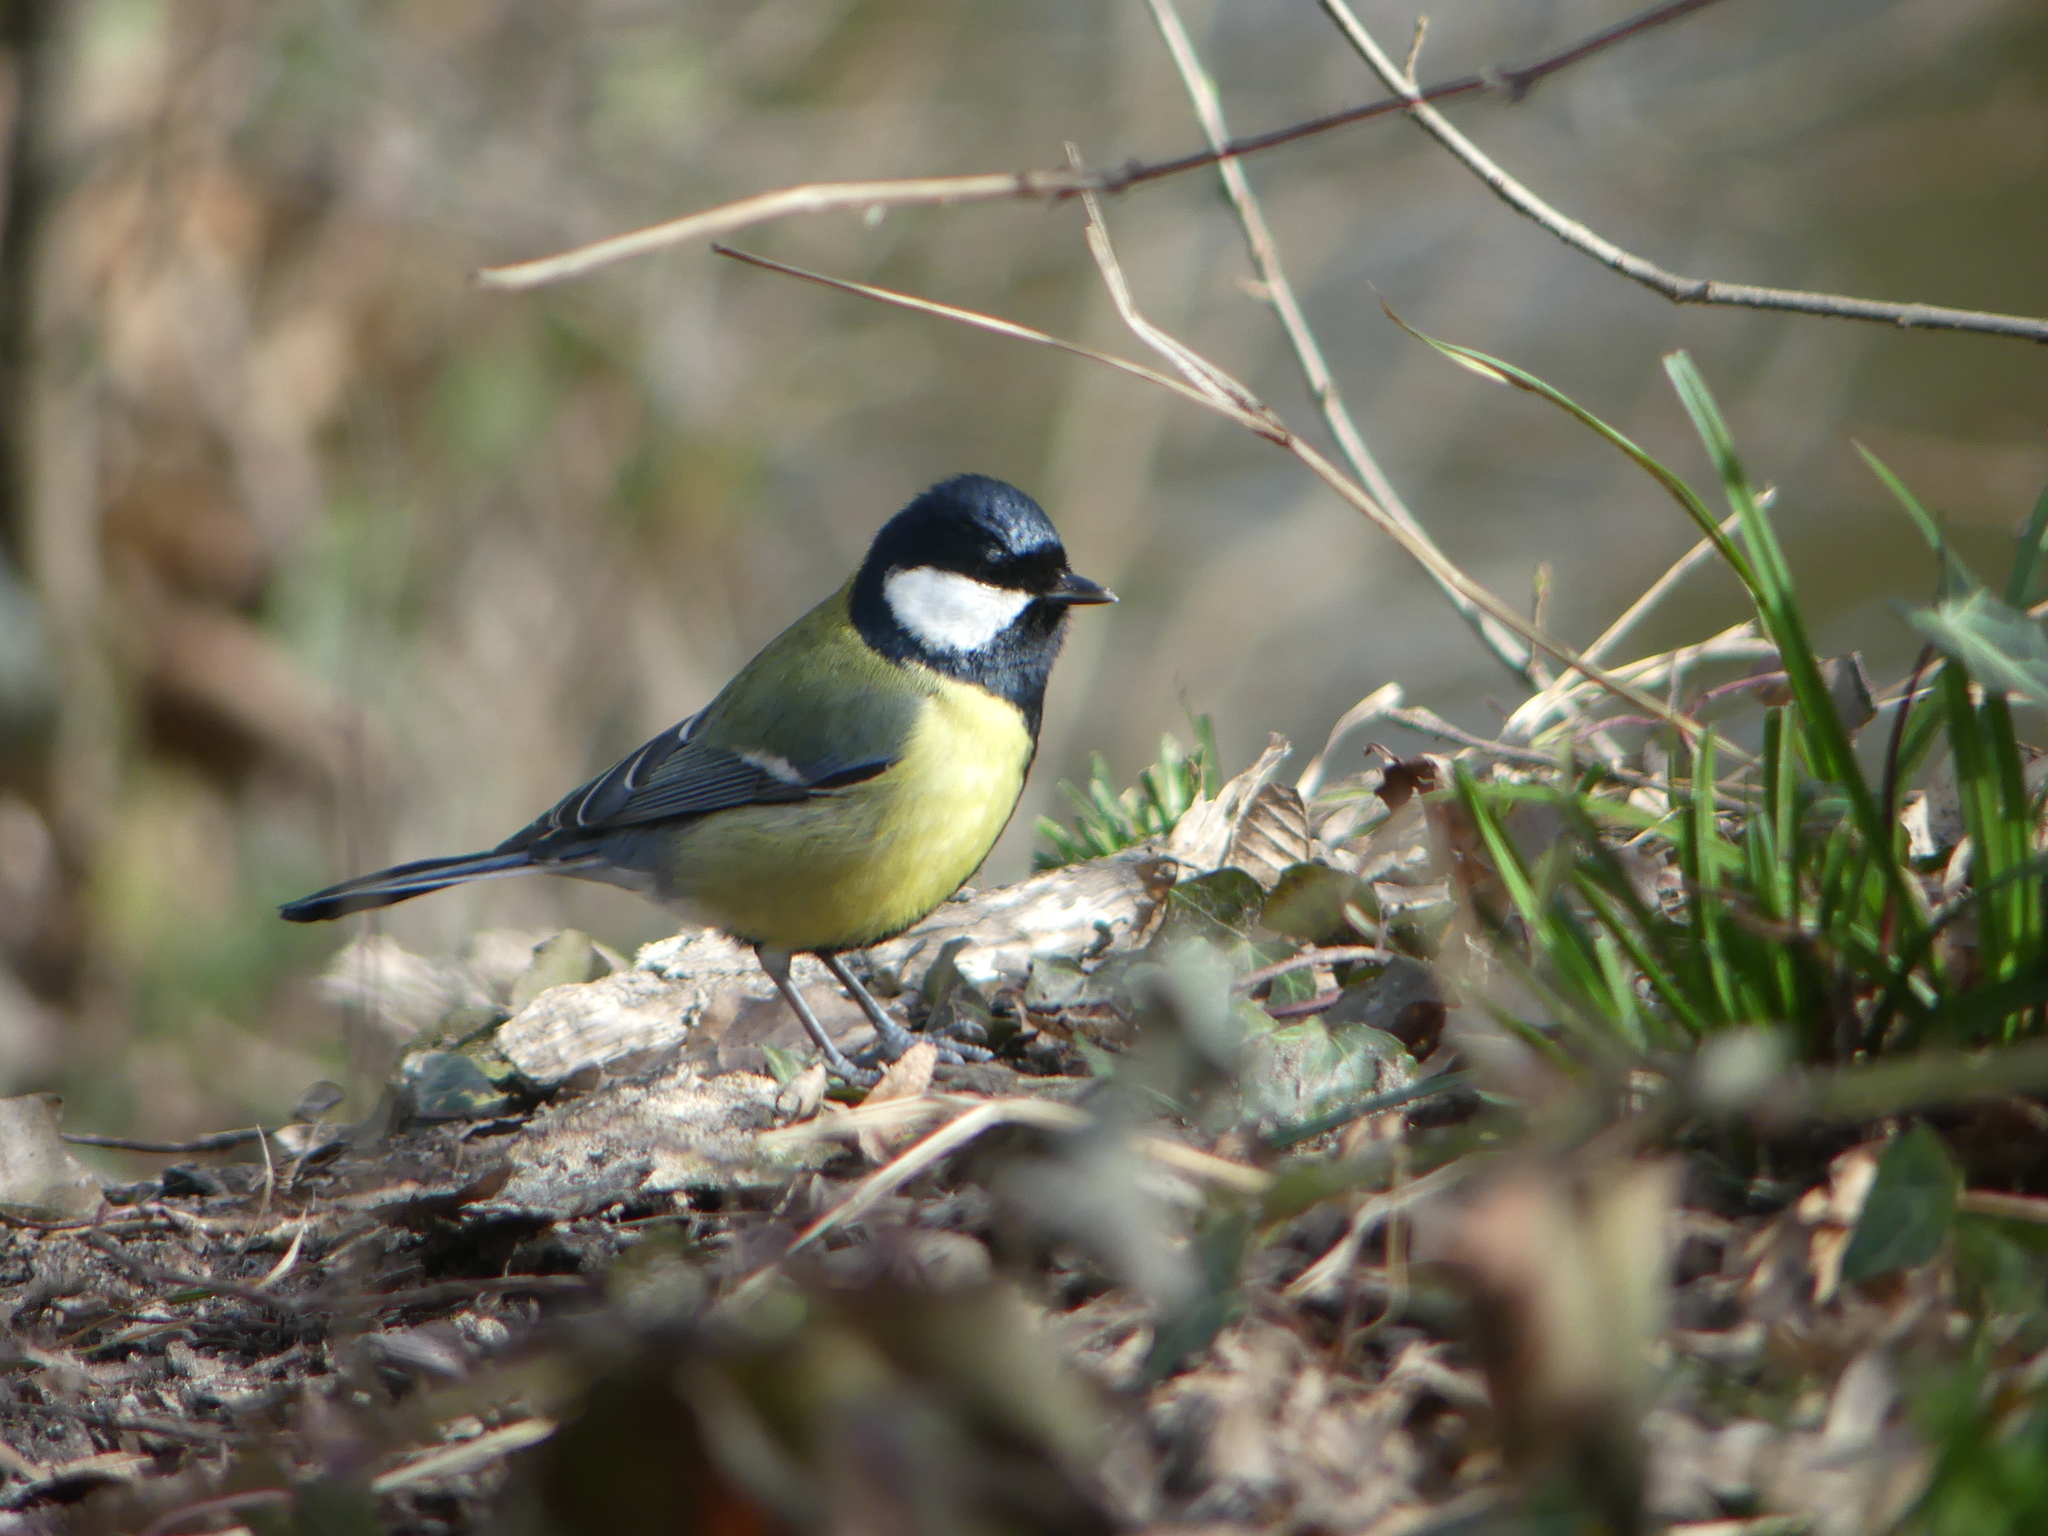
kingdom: Animalia
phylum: Chordata
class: Aves
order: Passeriformes
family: Paridae
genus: Parus
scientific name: Parus major
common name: Great tit
